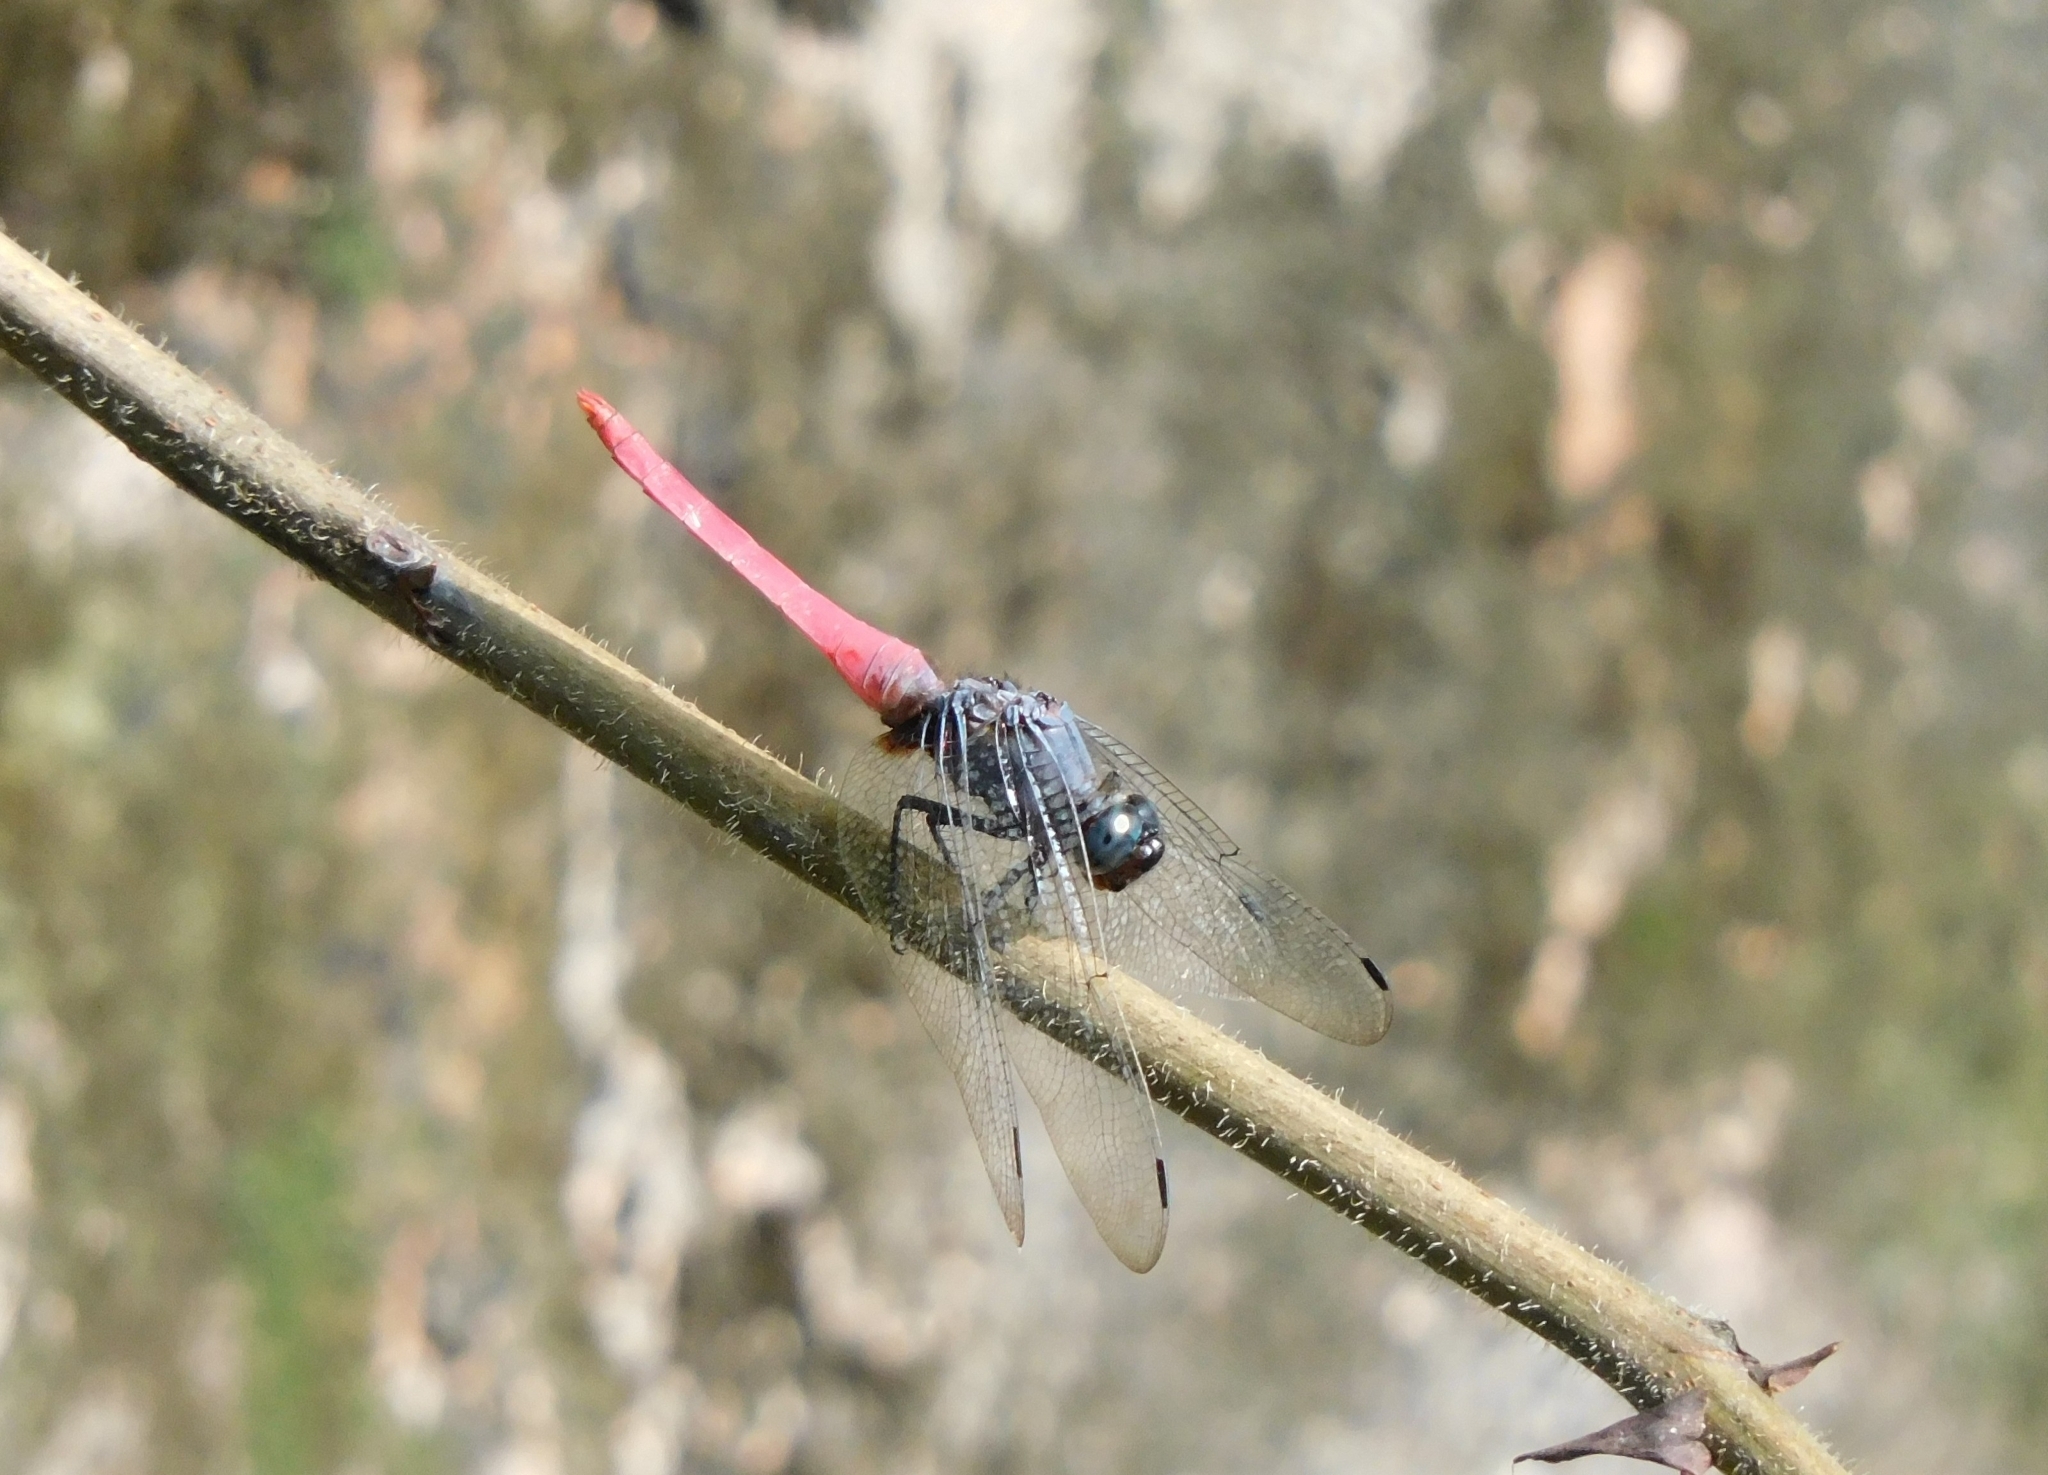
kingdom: Animalia
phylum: Arthropoda
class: Insecta
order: Odonata
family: Libellulidae
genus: Orthetrum
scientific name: Orthetrum pruinosum
